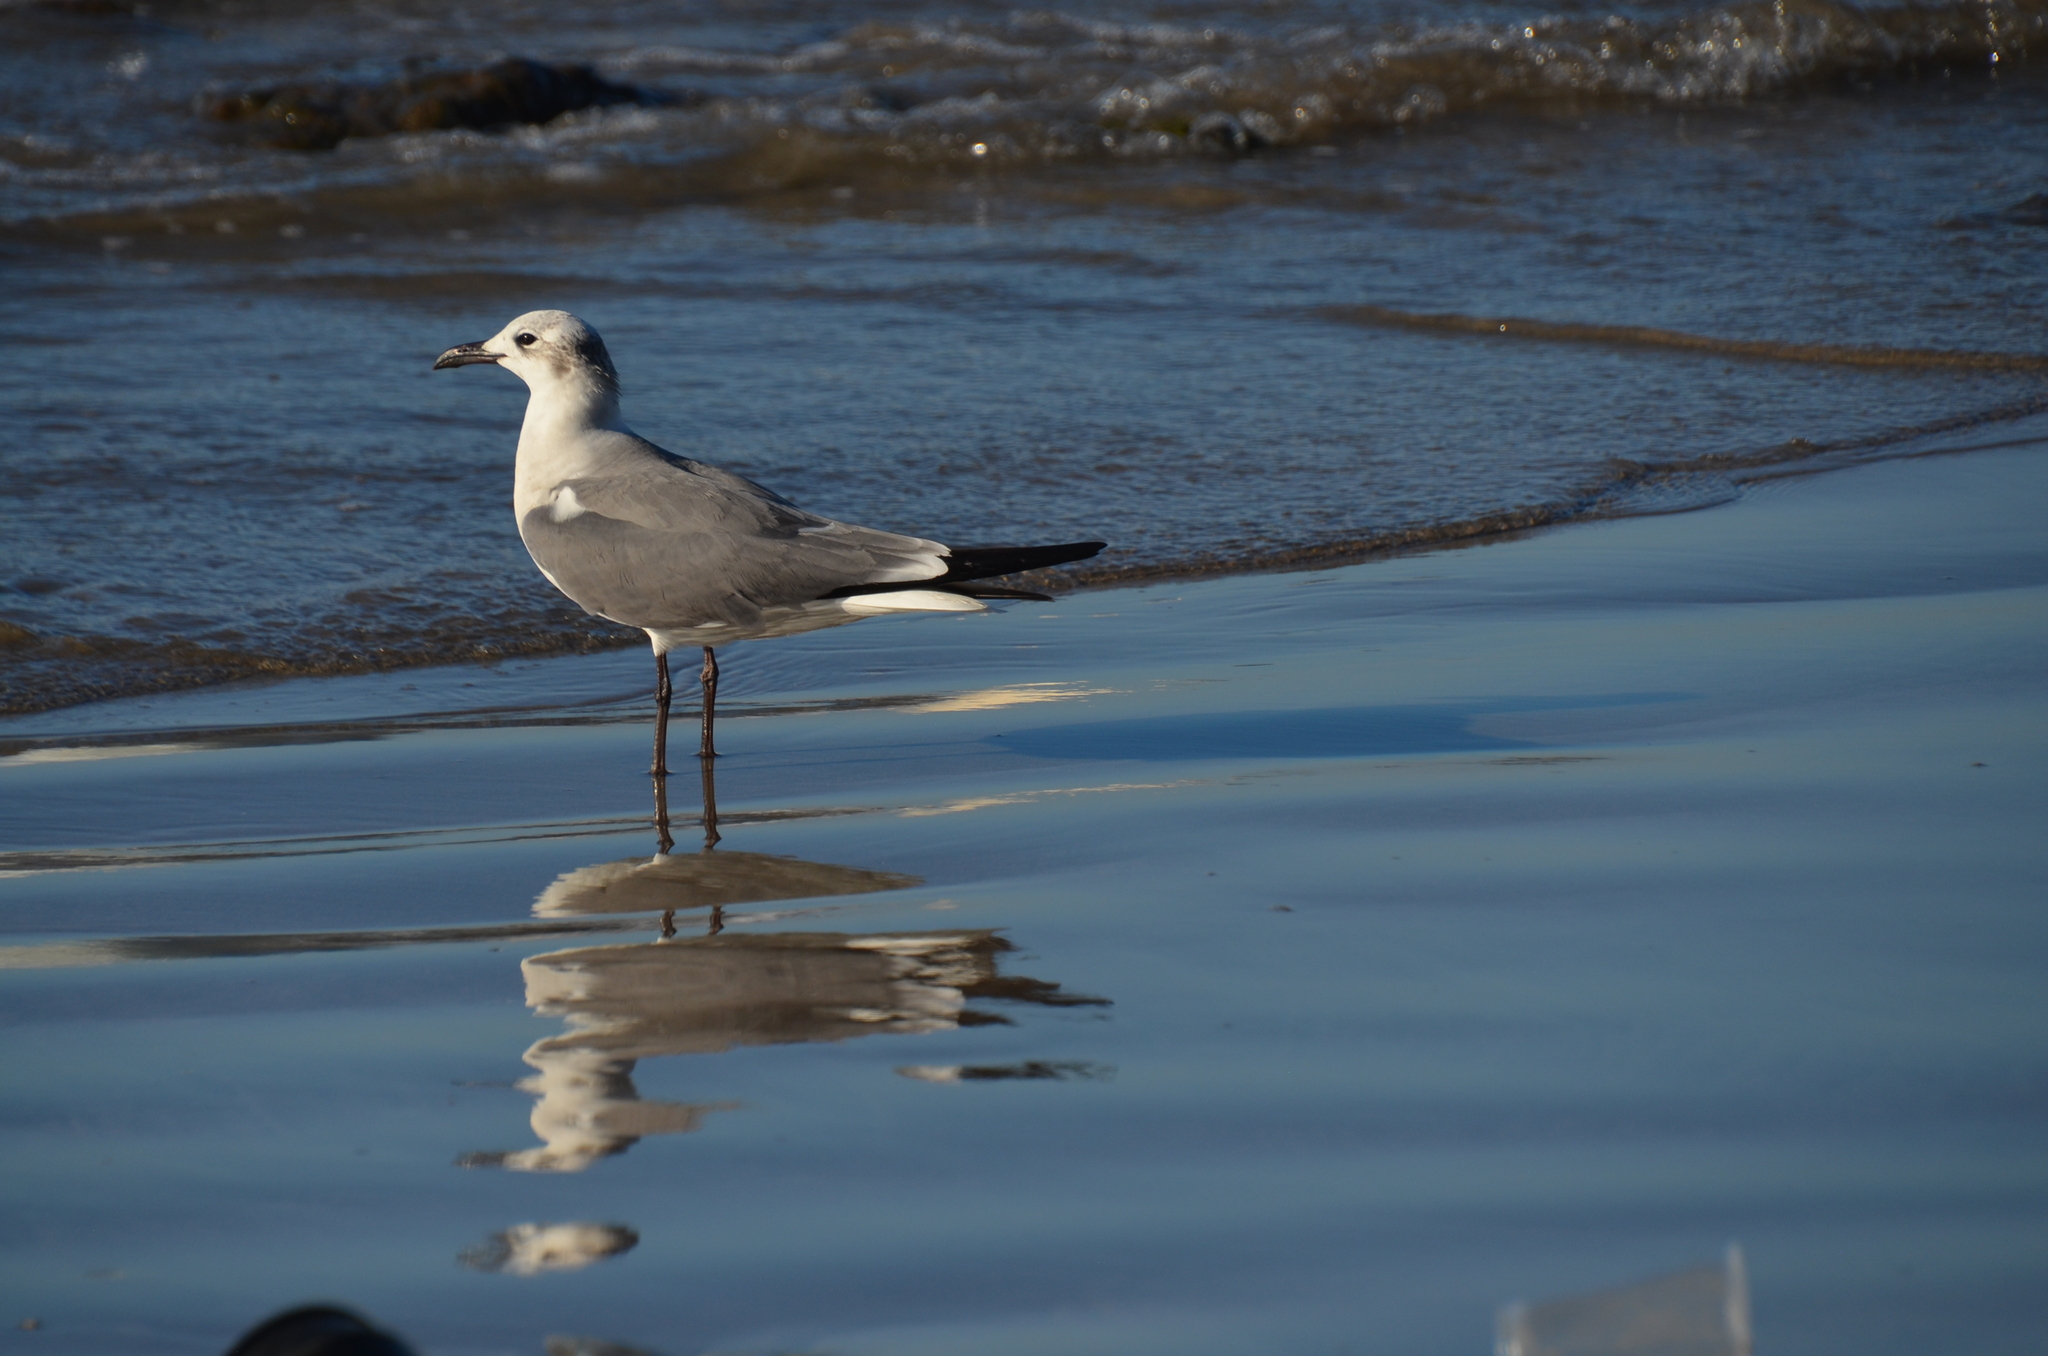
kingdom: Animalia
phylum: Chordata
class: Aves
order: Charadriiformes
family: Laridae
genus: Leucophaeus
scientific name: Leucophaeus atricilla
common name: Laughing gull
